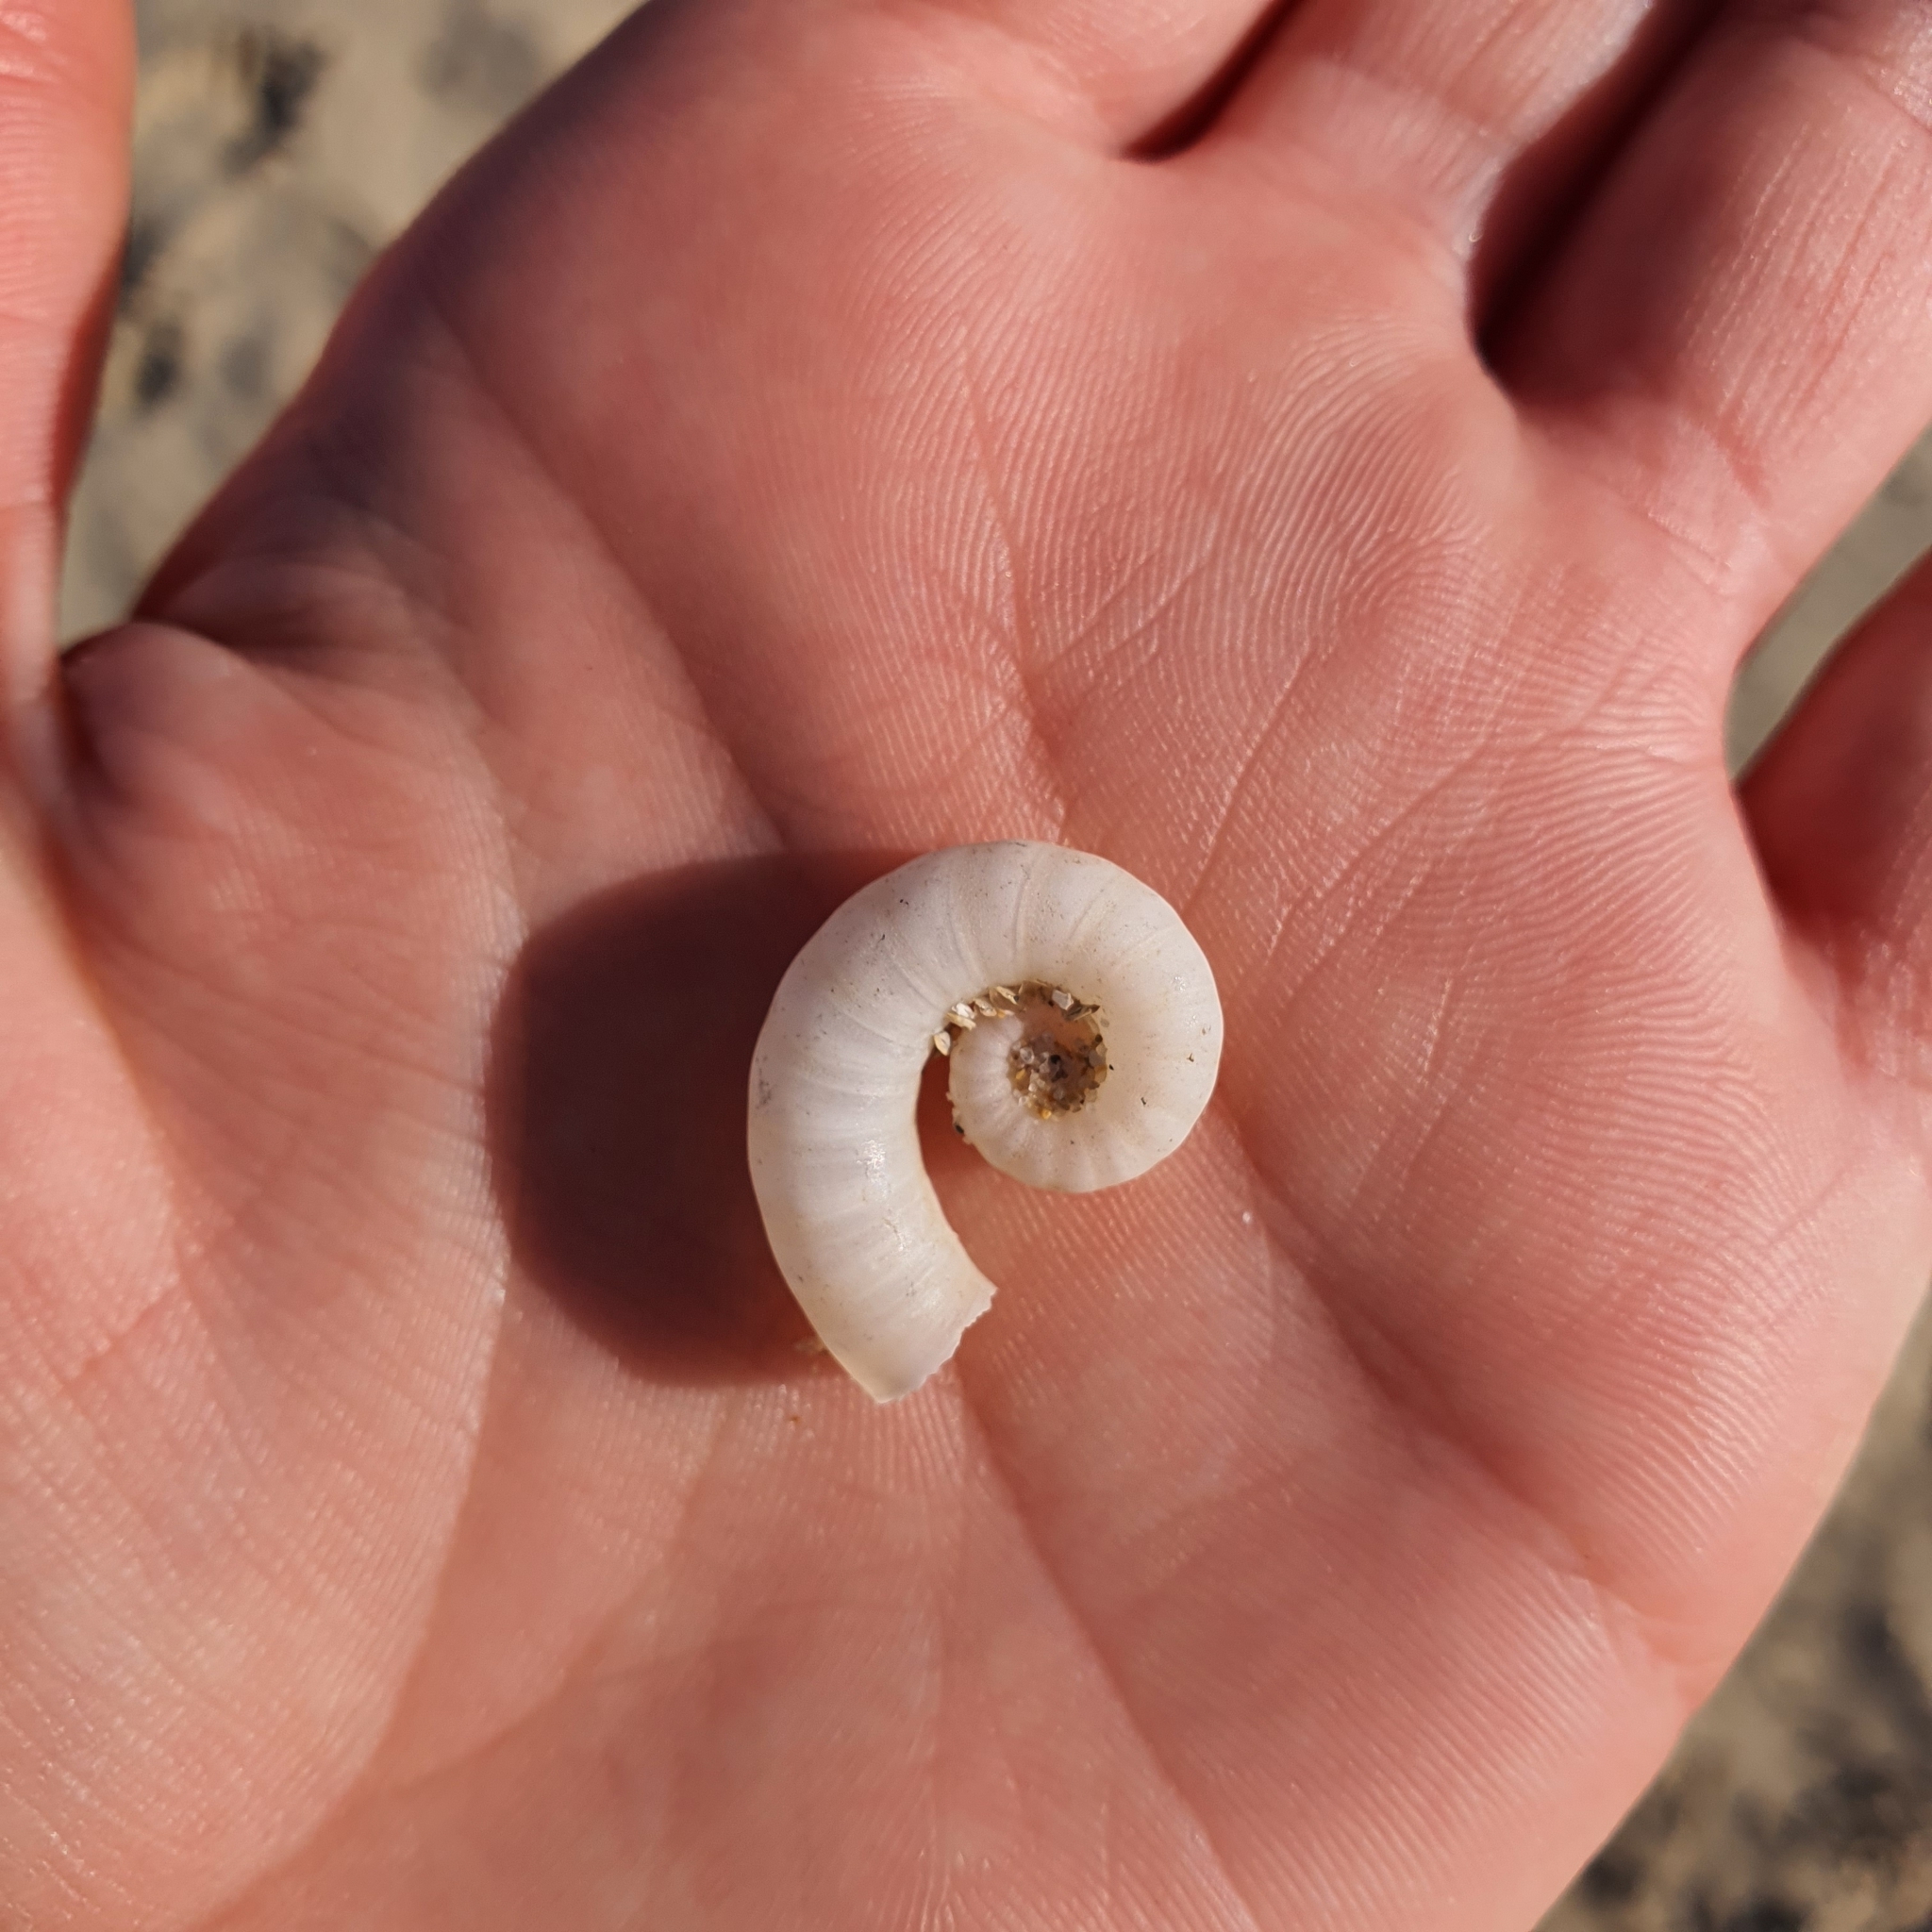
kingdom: Animalia
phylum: Mollusca
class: Cephalopoda
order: Spirulida
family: Spirulidae
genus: Spirula
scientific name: Spirula spirula
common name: Ram's horn squid
